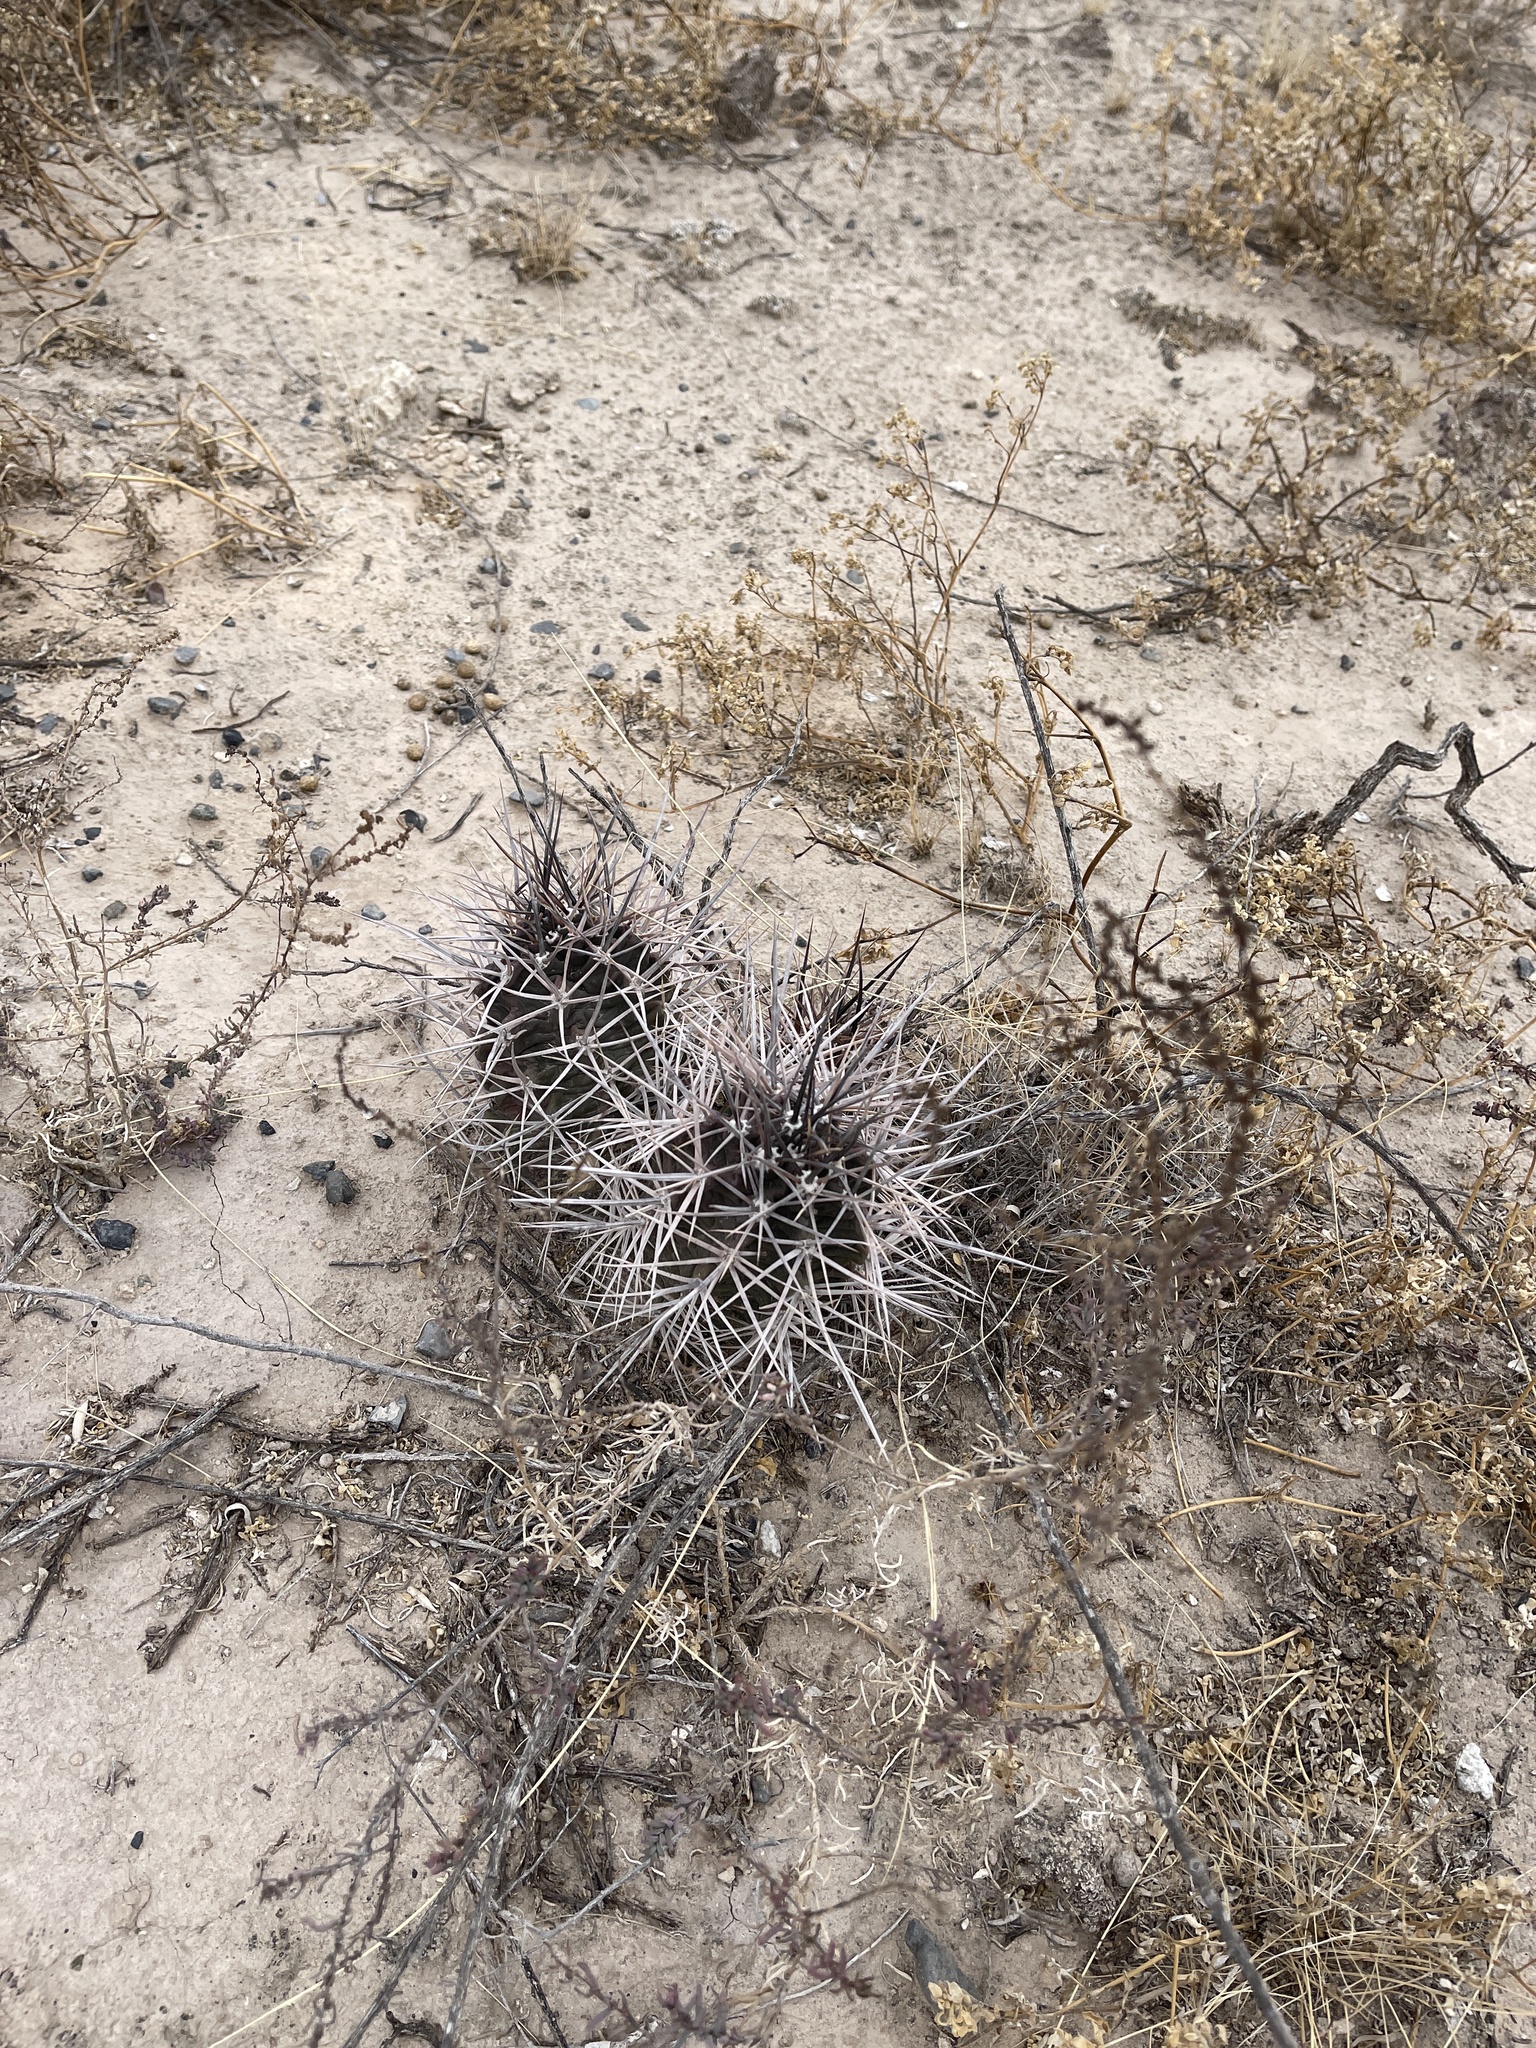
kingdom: Plantae
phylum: Tracheophyta
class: Magnoliopsida
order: Caryophyllales
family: Cactaceae
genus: Echinocereus
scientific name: Echinocereus triglochidiatus
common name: Claretcup hedgehog
